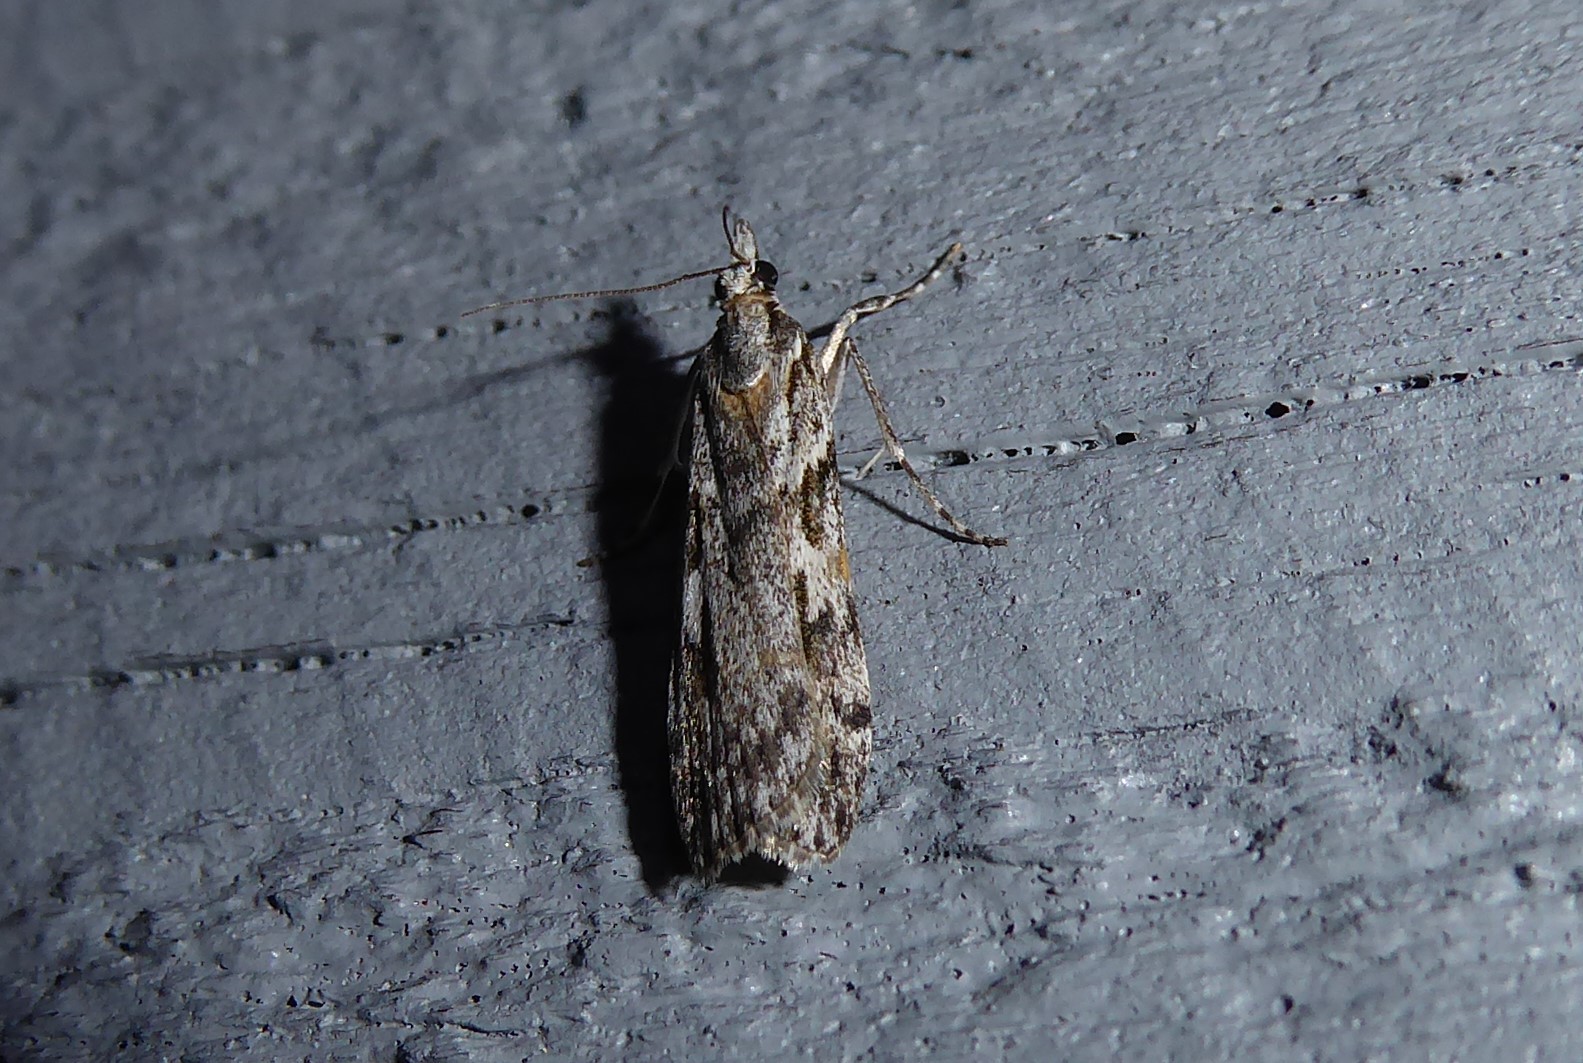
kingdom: Animalia
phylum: Arthropoda
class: Insecta
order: Lepidoptera
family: Crambidae
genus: Scoparia
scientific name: Scoparia halopis
